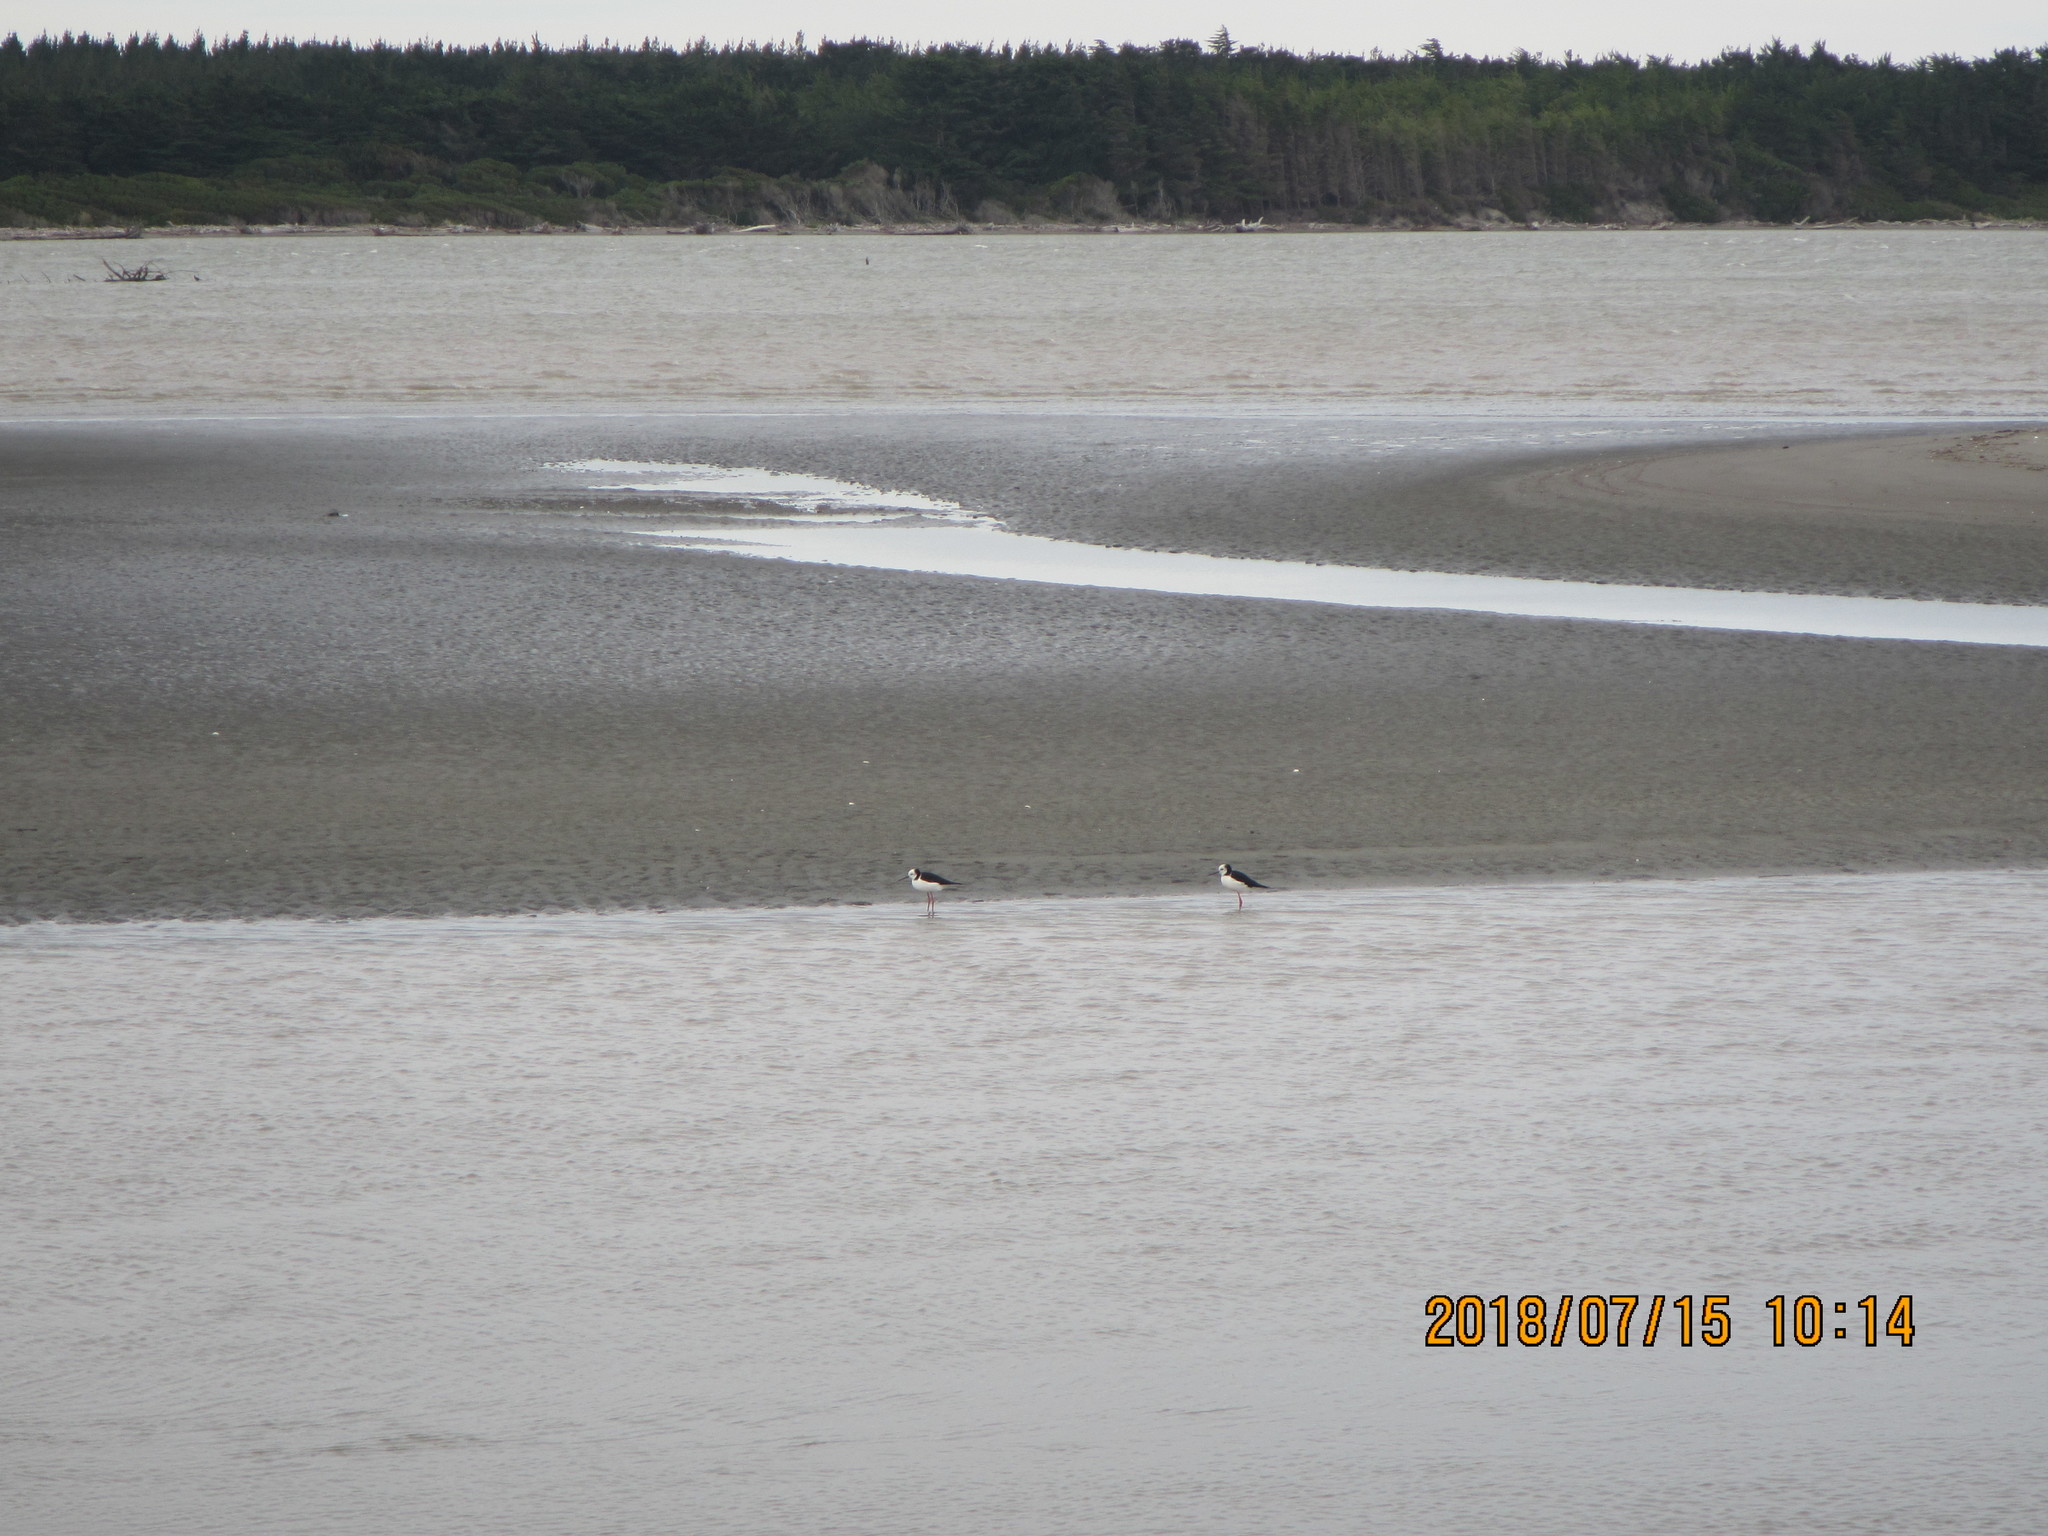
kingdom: Animalia
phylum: Chordata
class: Aves
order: Charadriiformes
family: Recurvirostridae
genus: Himantopus
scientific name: Himantopus leucocephalus
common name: White-headed stilt
